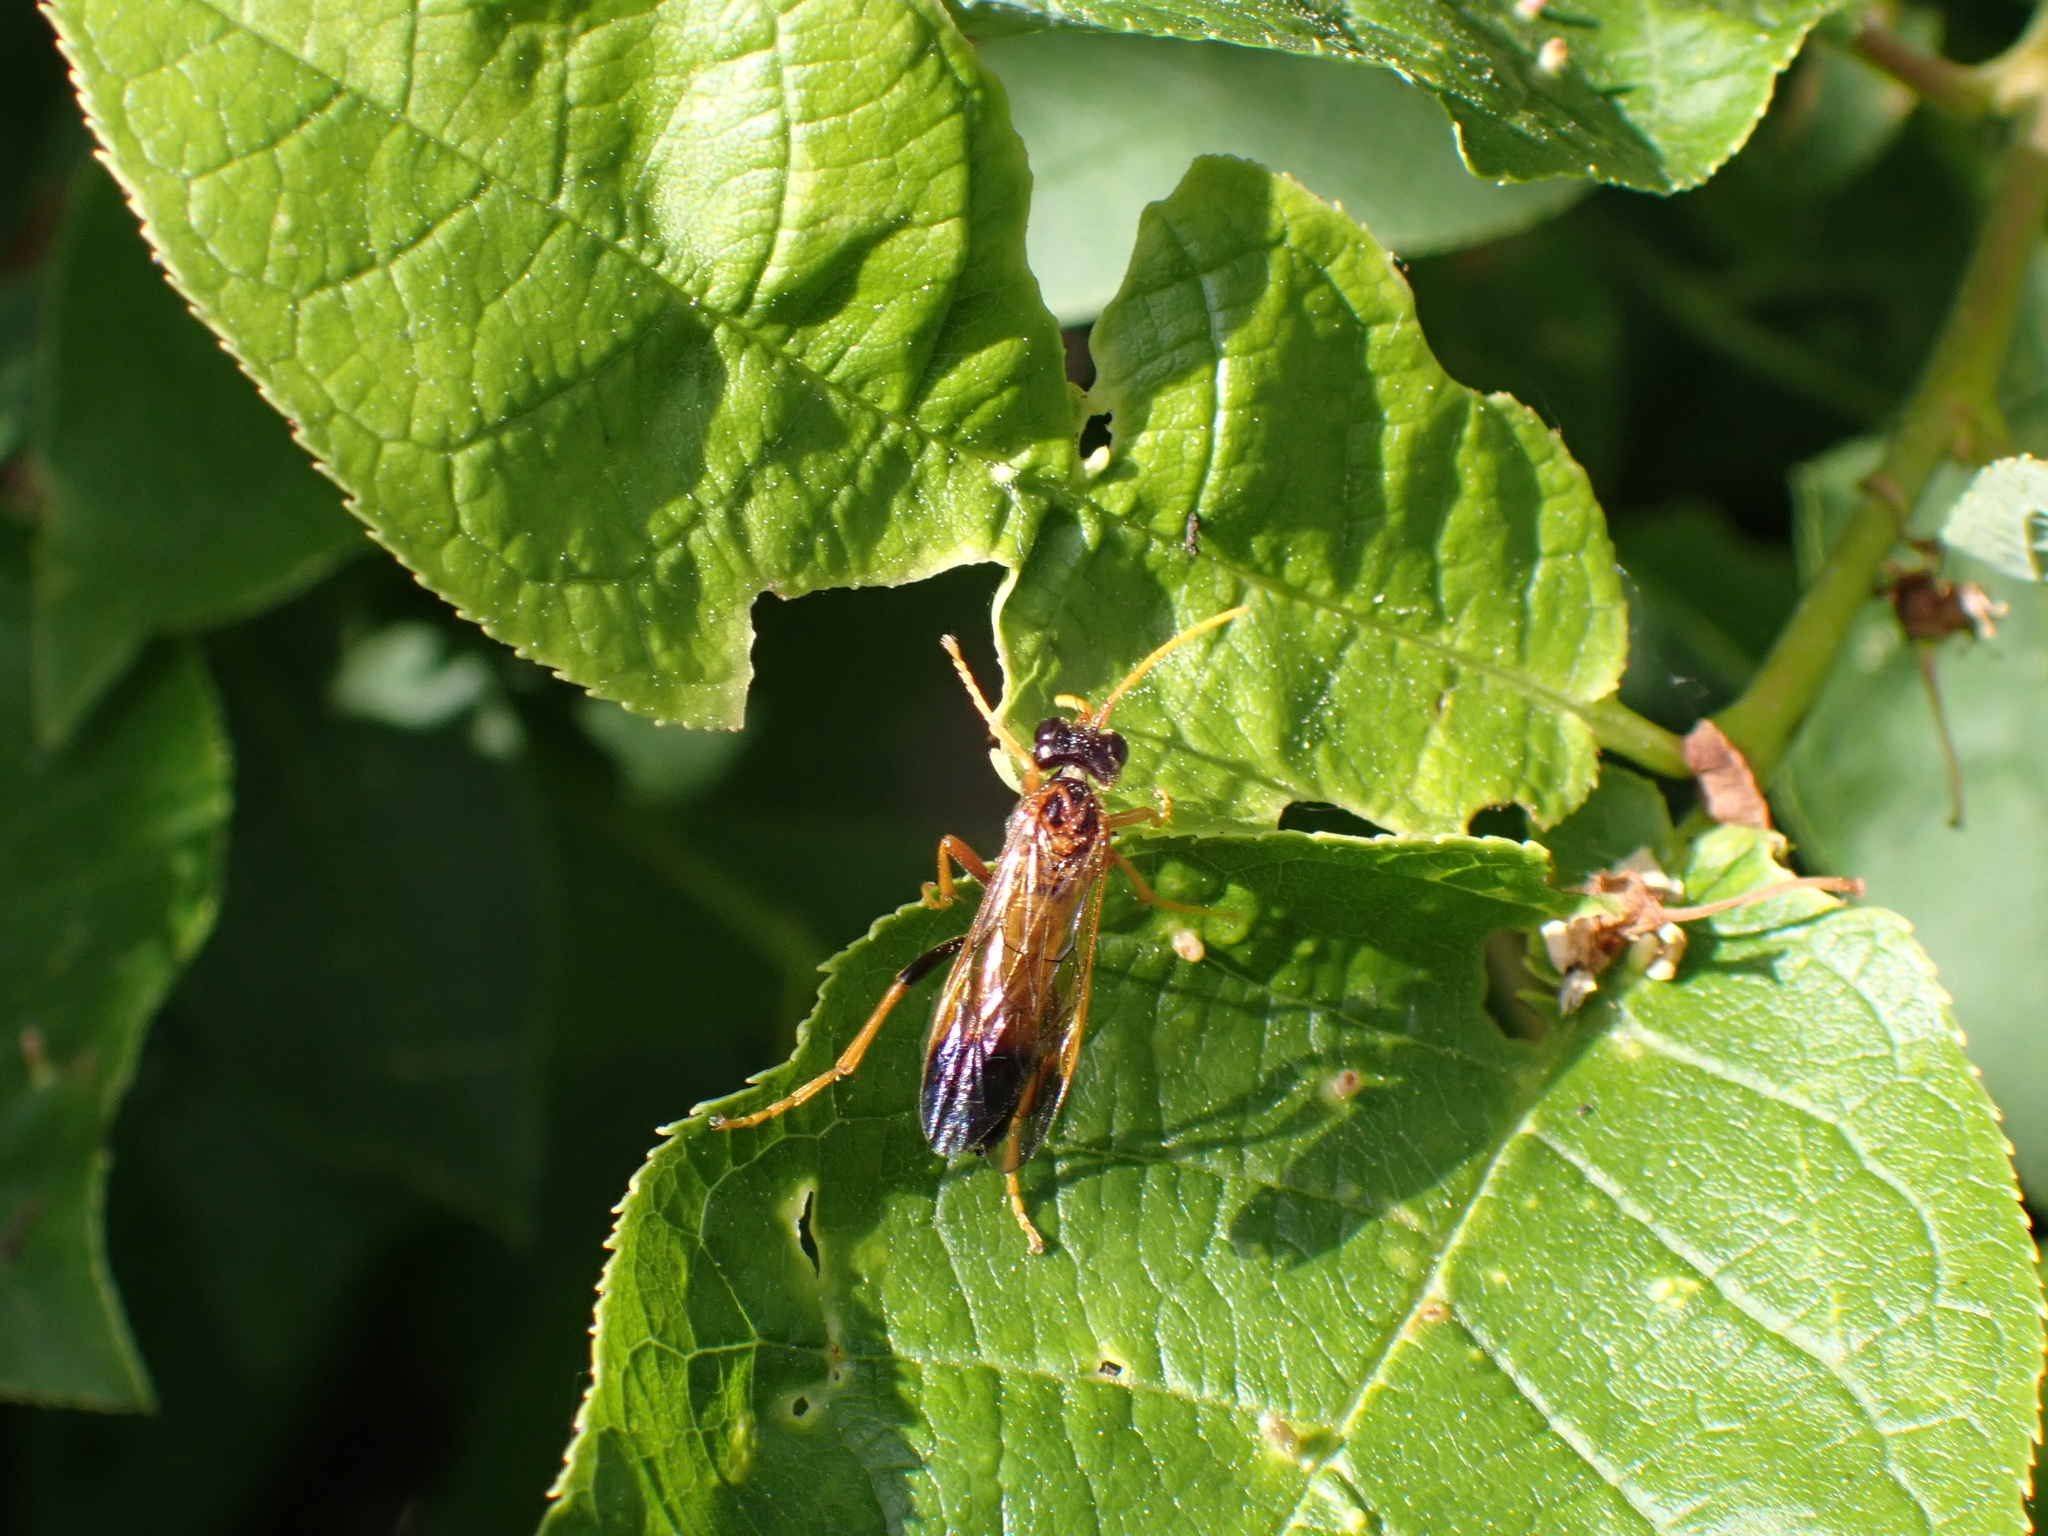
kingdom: Animalia
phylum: Arthropoda
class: Insecta
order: Hymenoptera
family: Tenthredinidae
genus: Tenthredo
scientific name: Tenthredo campestris
